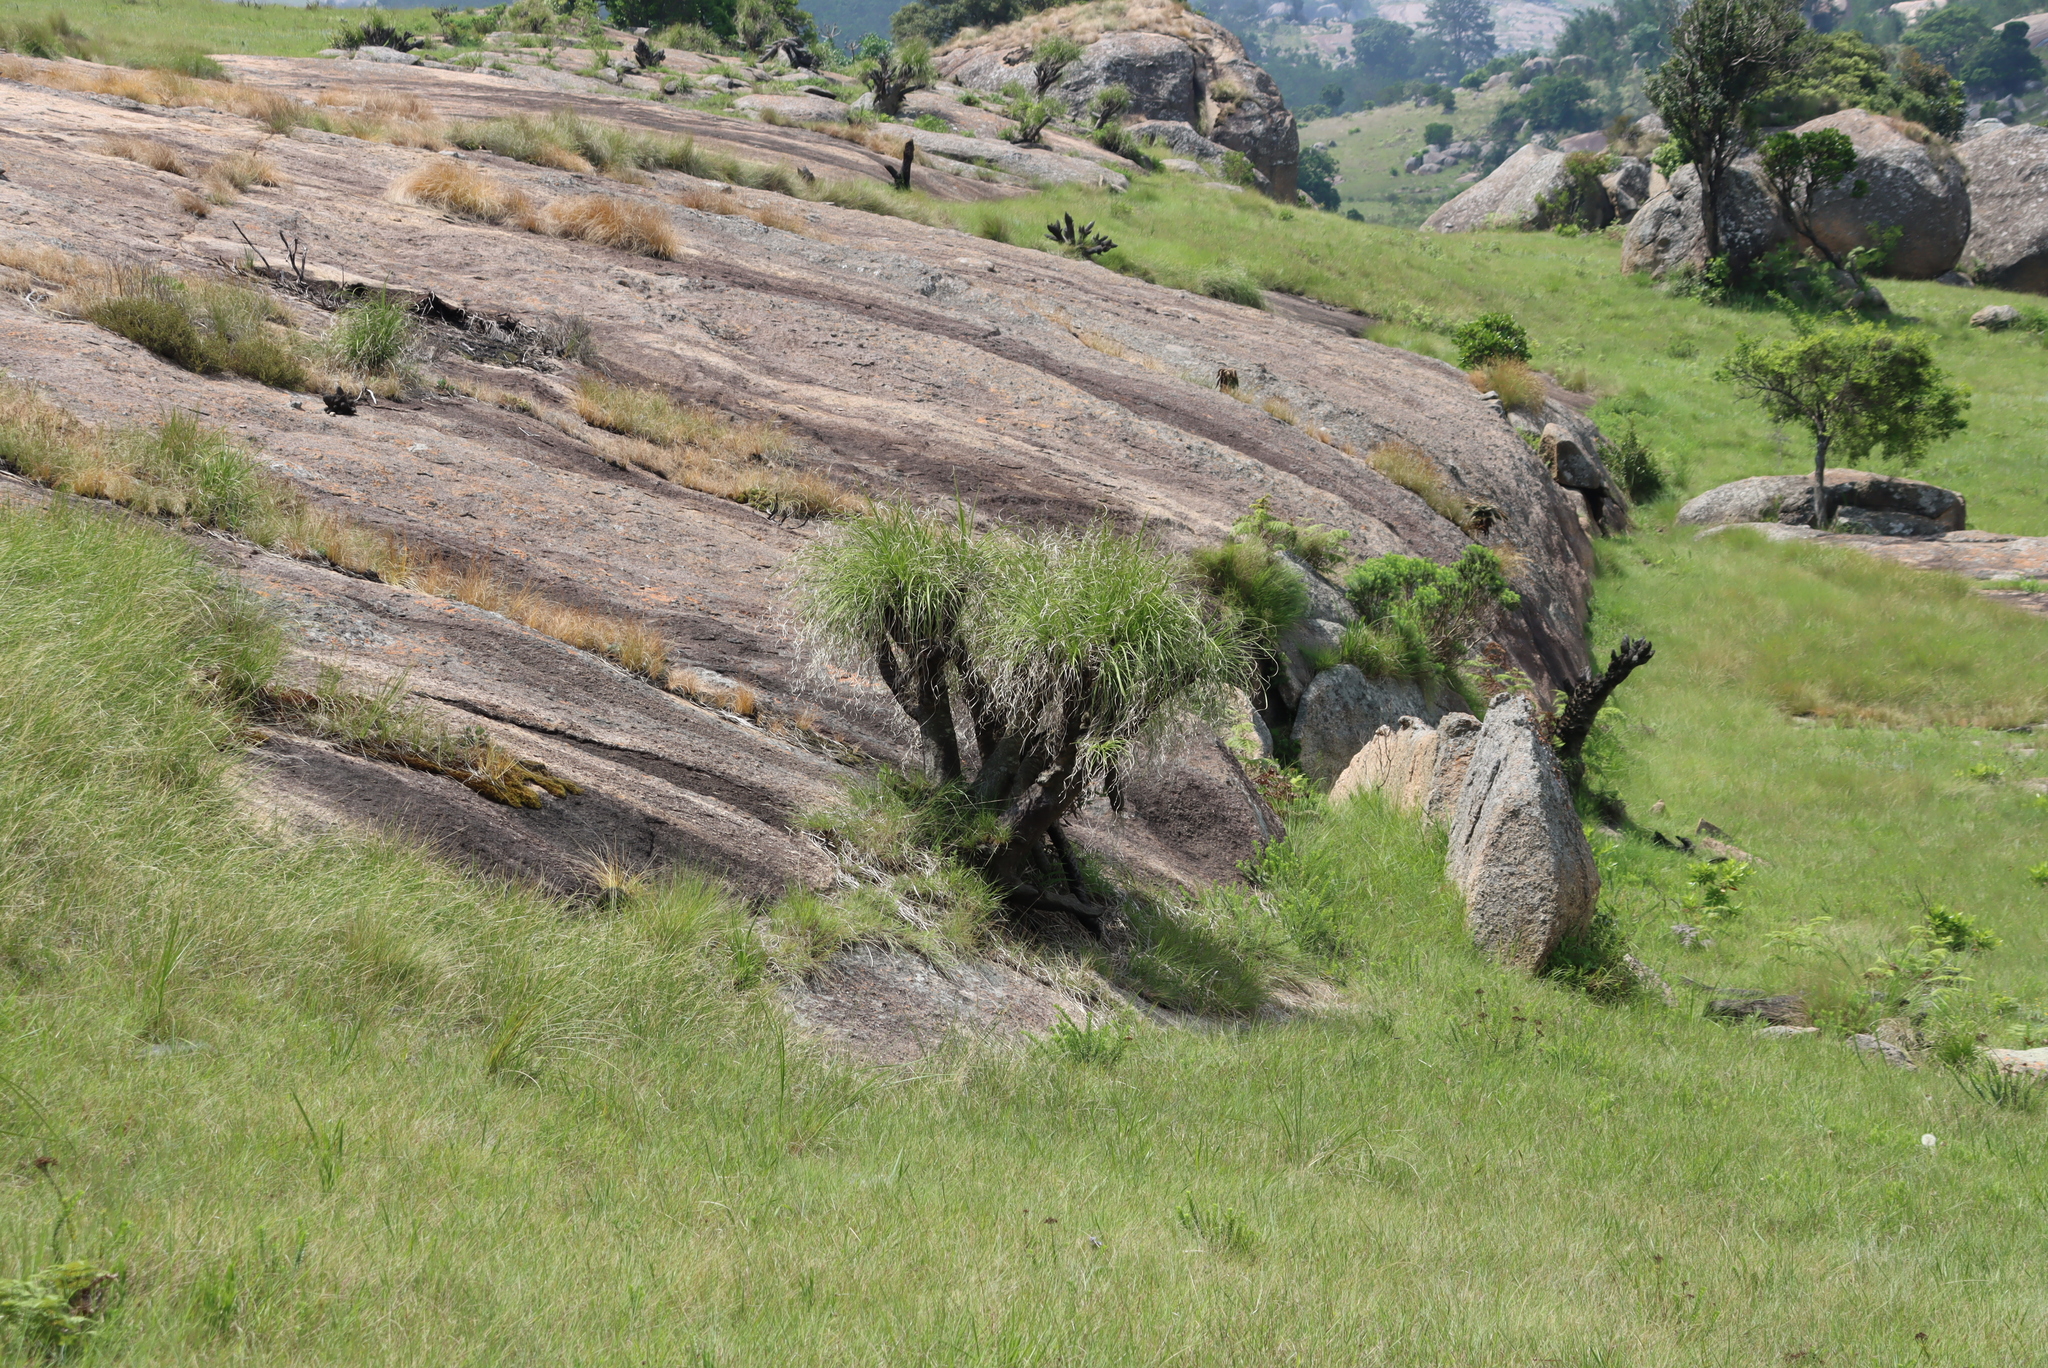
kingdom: Plantae
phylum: Tracheophyta
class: Liliopsida
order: Pandanales
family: Velloziaceae
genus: Xerophyta
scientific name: Xerophyta retinervis
